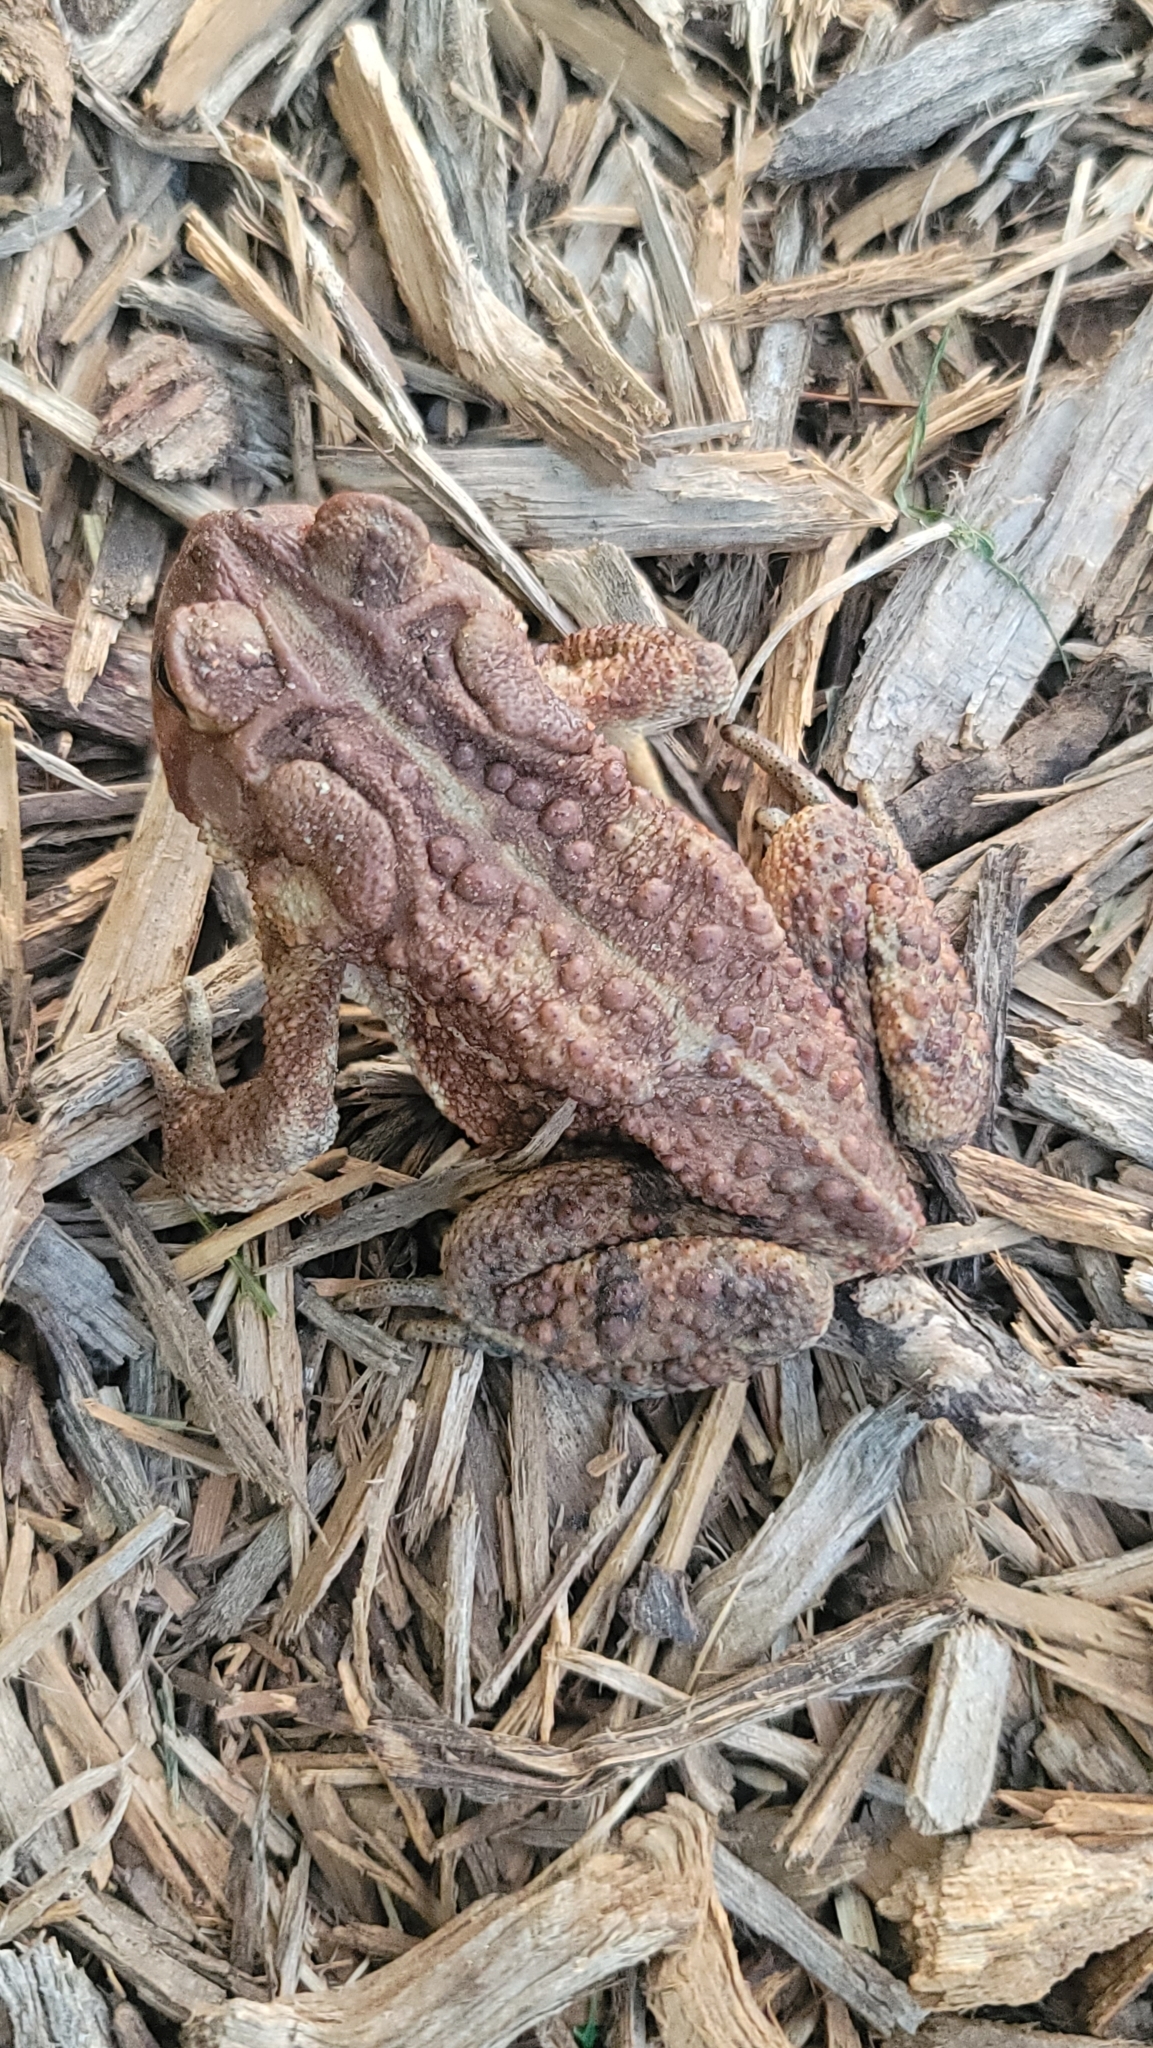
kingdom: Animalia
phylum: Chordata
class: Amphibia
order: Anura
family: Bufonidae
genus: Anaxyrus
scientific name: Anaxyrus americanus
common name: American toad
